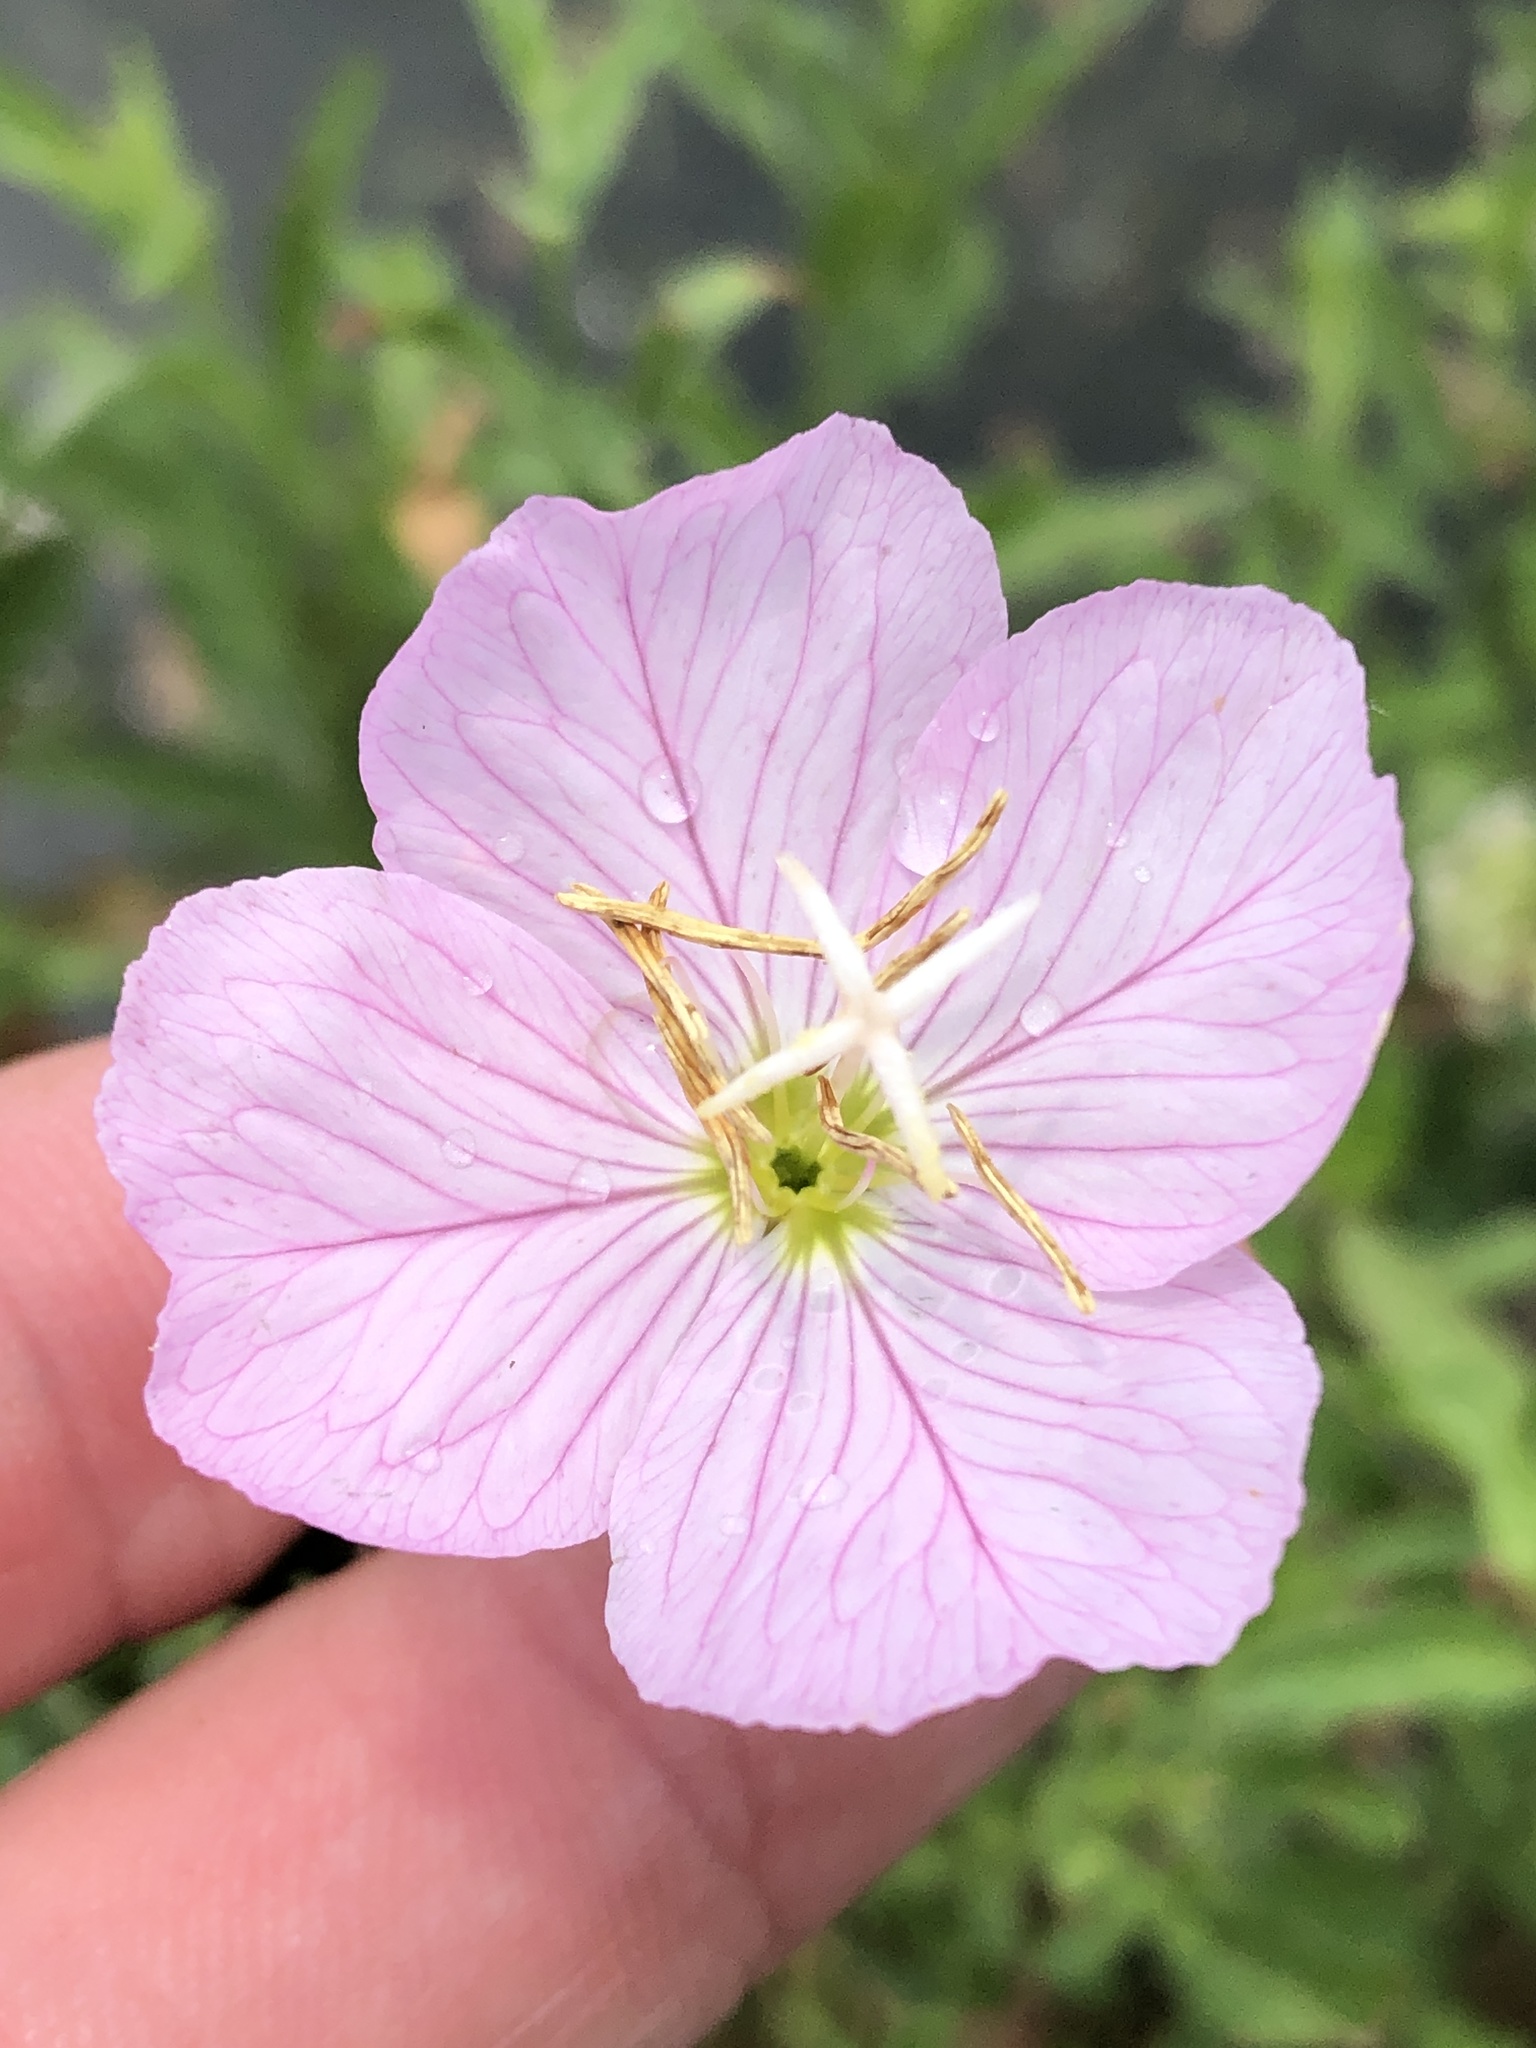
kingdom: Plantae
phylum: Tracheophyta
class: Magnoliopsida
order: Myrtales
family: Onagraceae
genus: Oenothera
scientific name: Oenothera speciosa
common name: White evening-primrose
